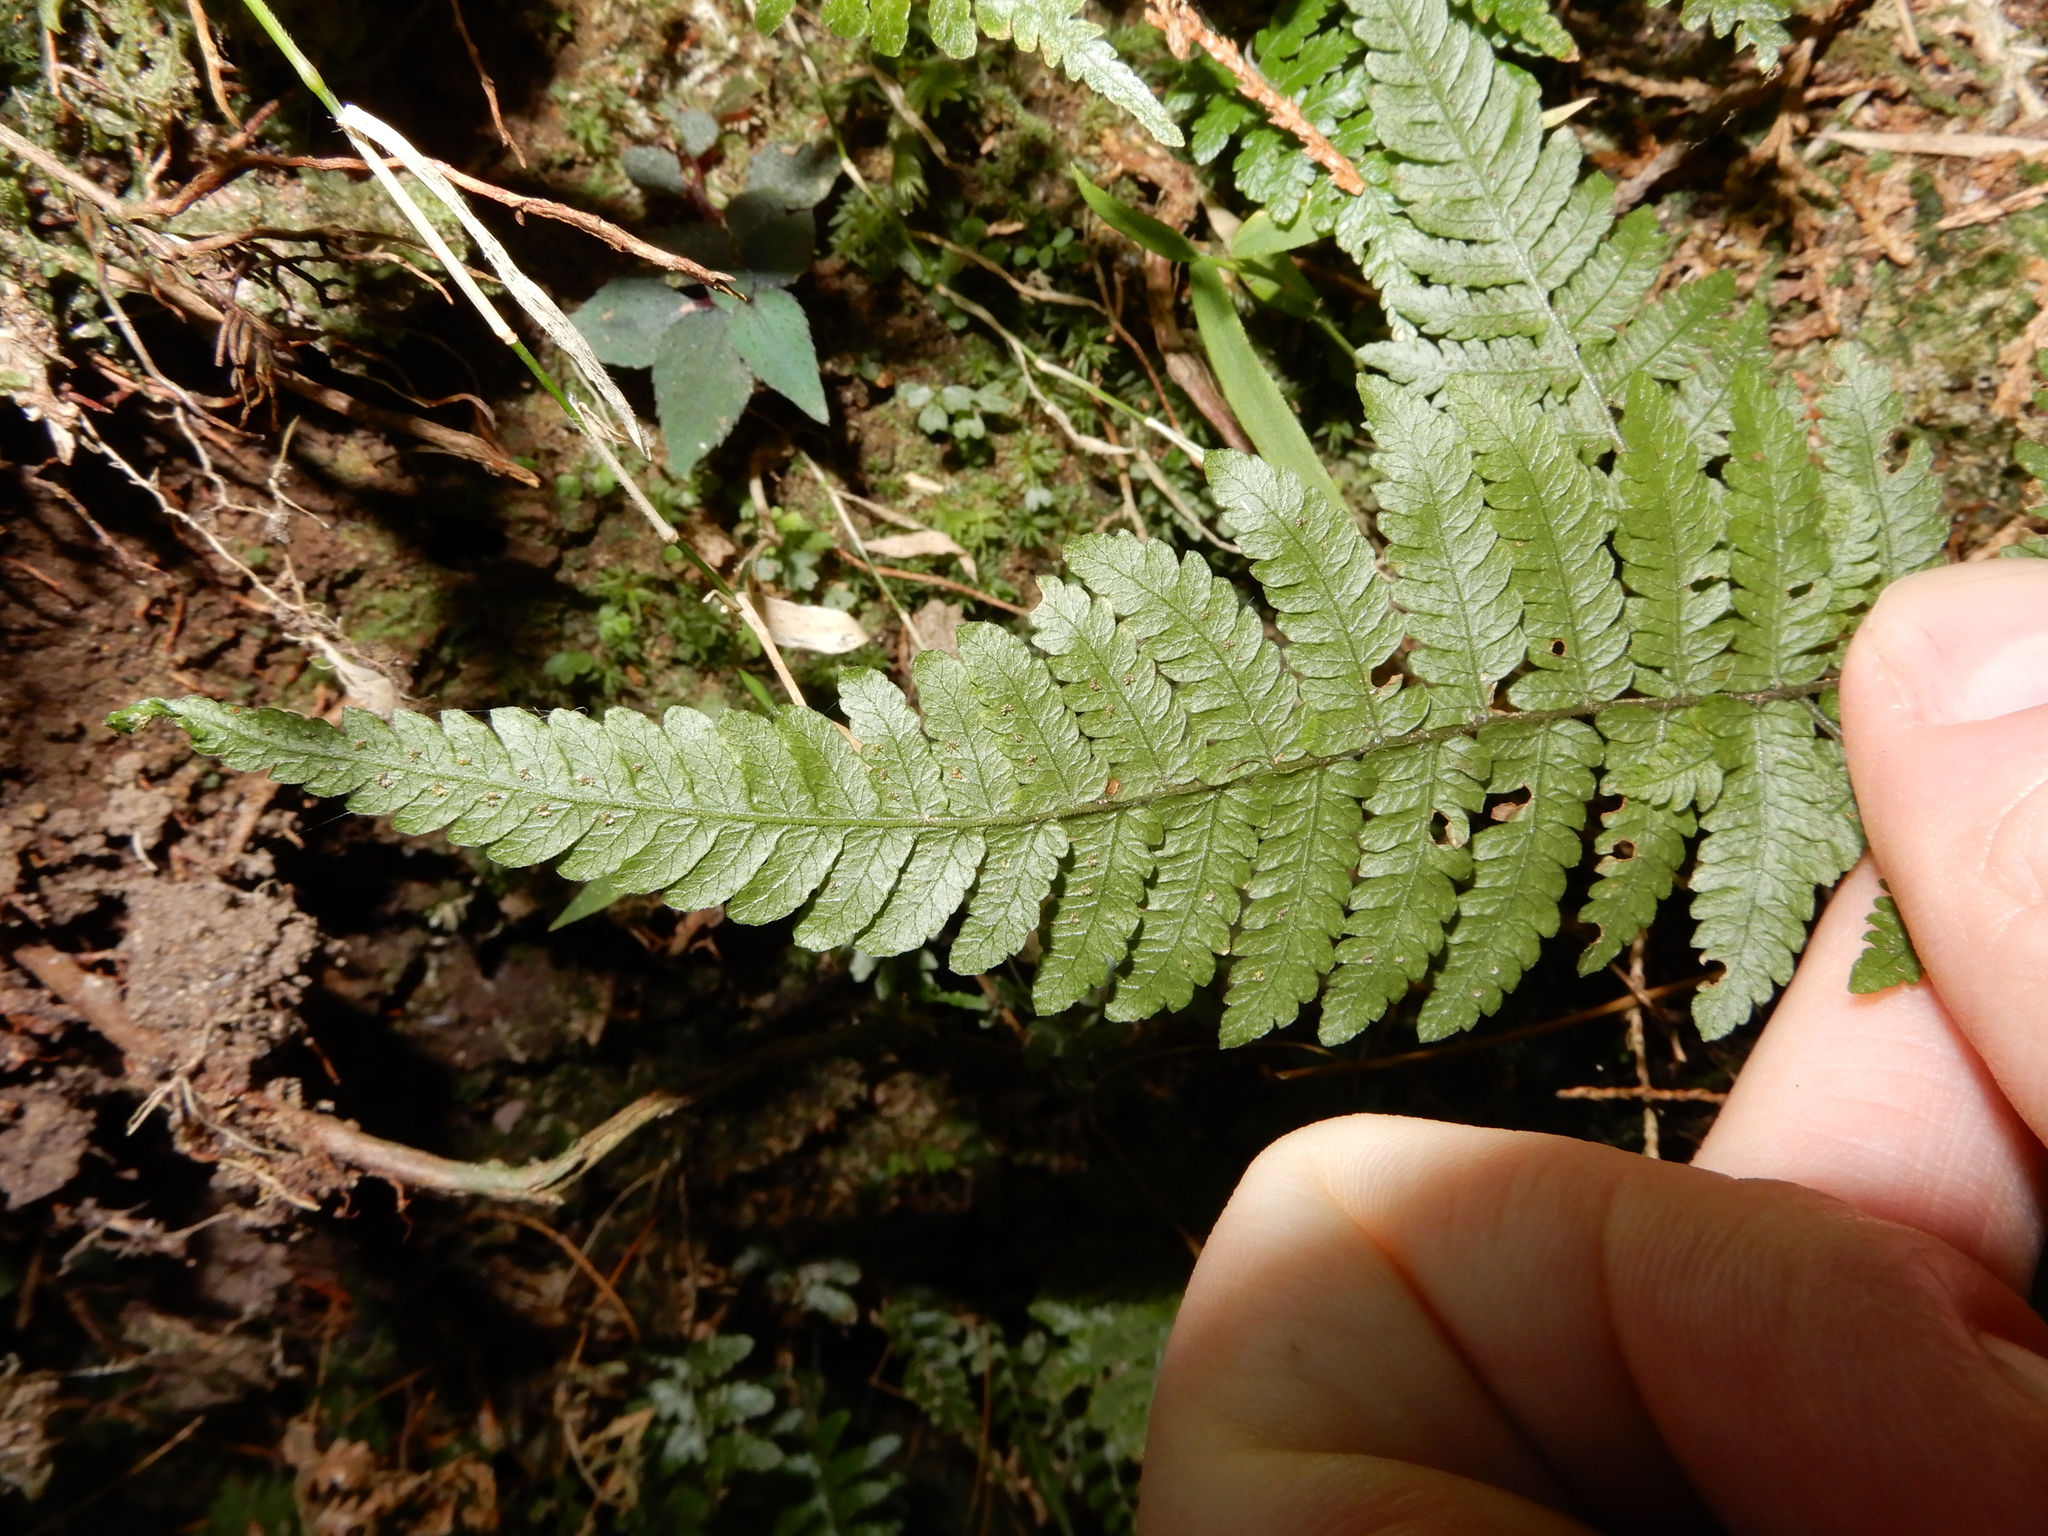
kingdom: Plantae
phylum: Tracheophyta
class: Polypodiopsida
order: Polypodiales
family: Thelypteridaceae
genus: Metathelypteris
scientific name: Metathelypteris gracilescens
